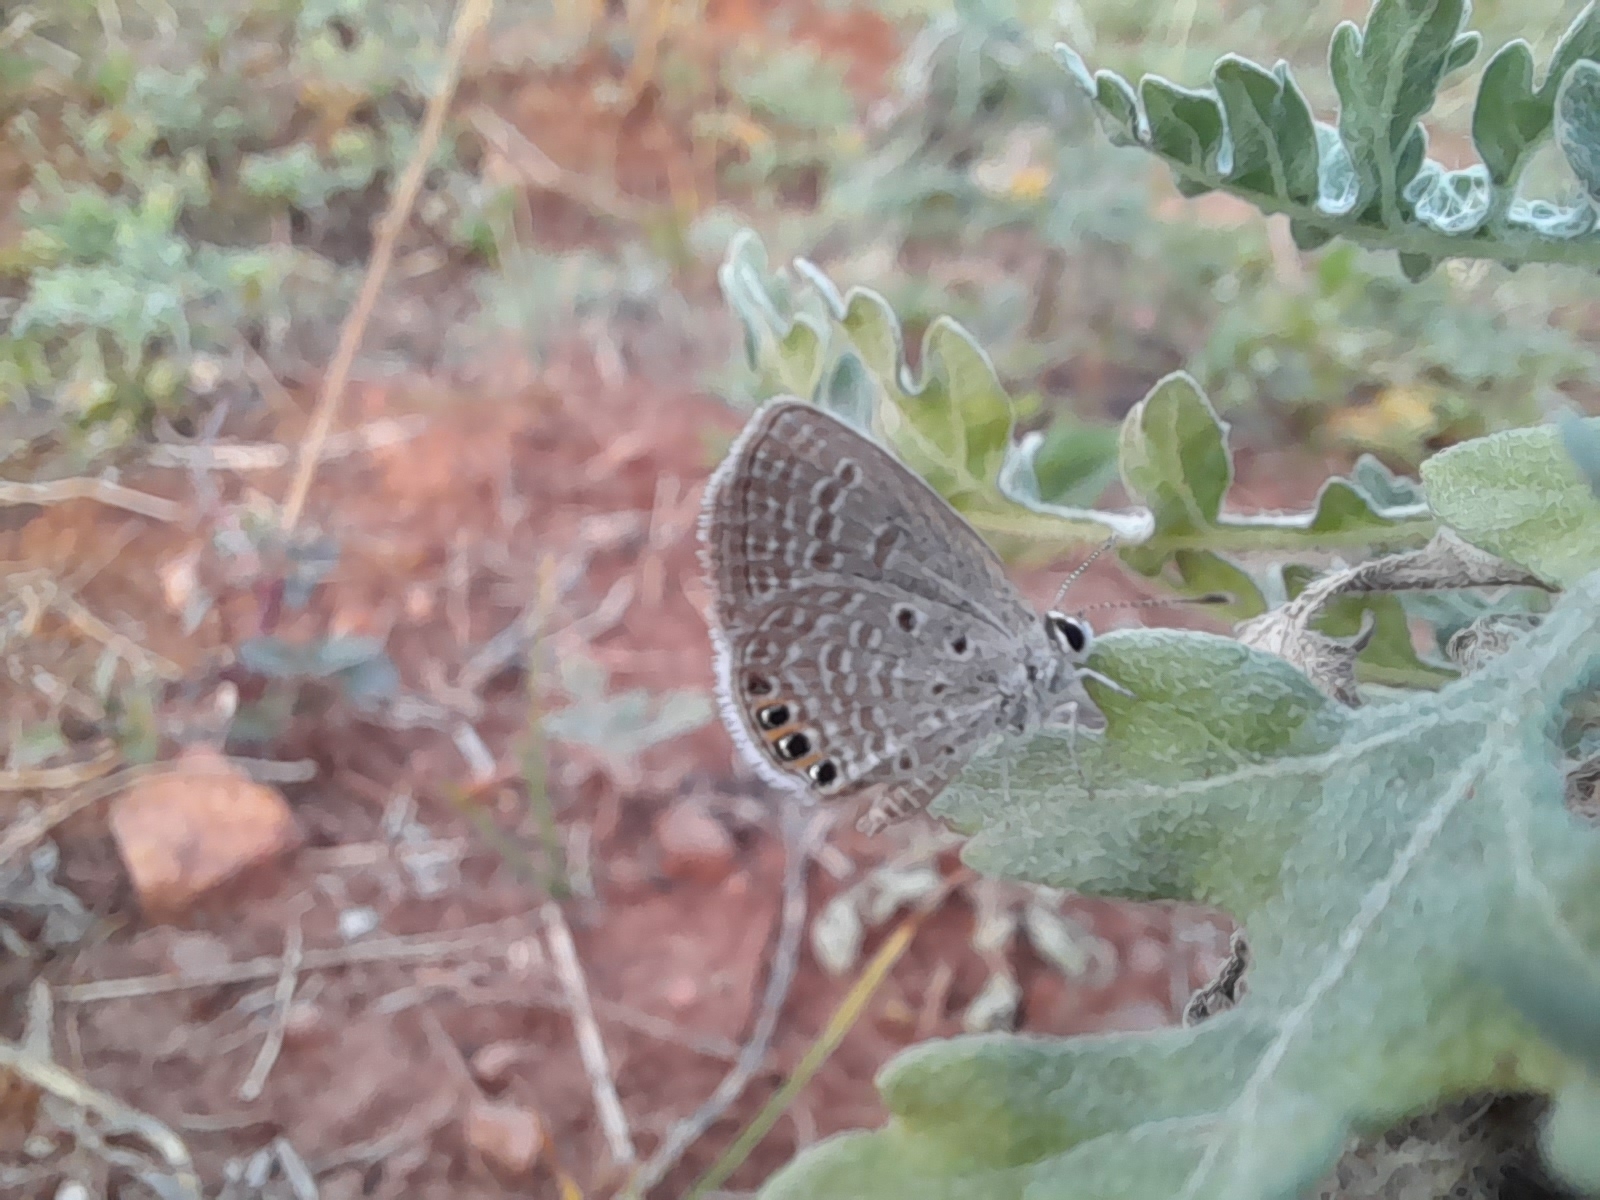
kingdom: Animalia
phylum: Arthropoda
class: Insecta
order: Lepidoptera
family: Lycaenidae
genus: Freyeria
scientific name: Freyeria putli
